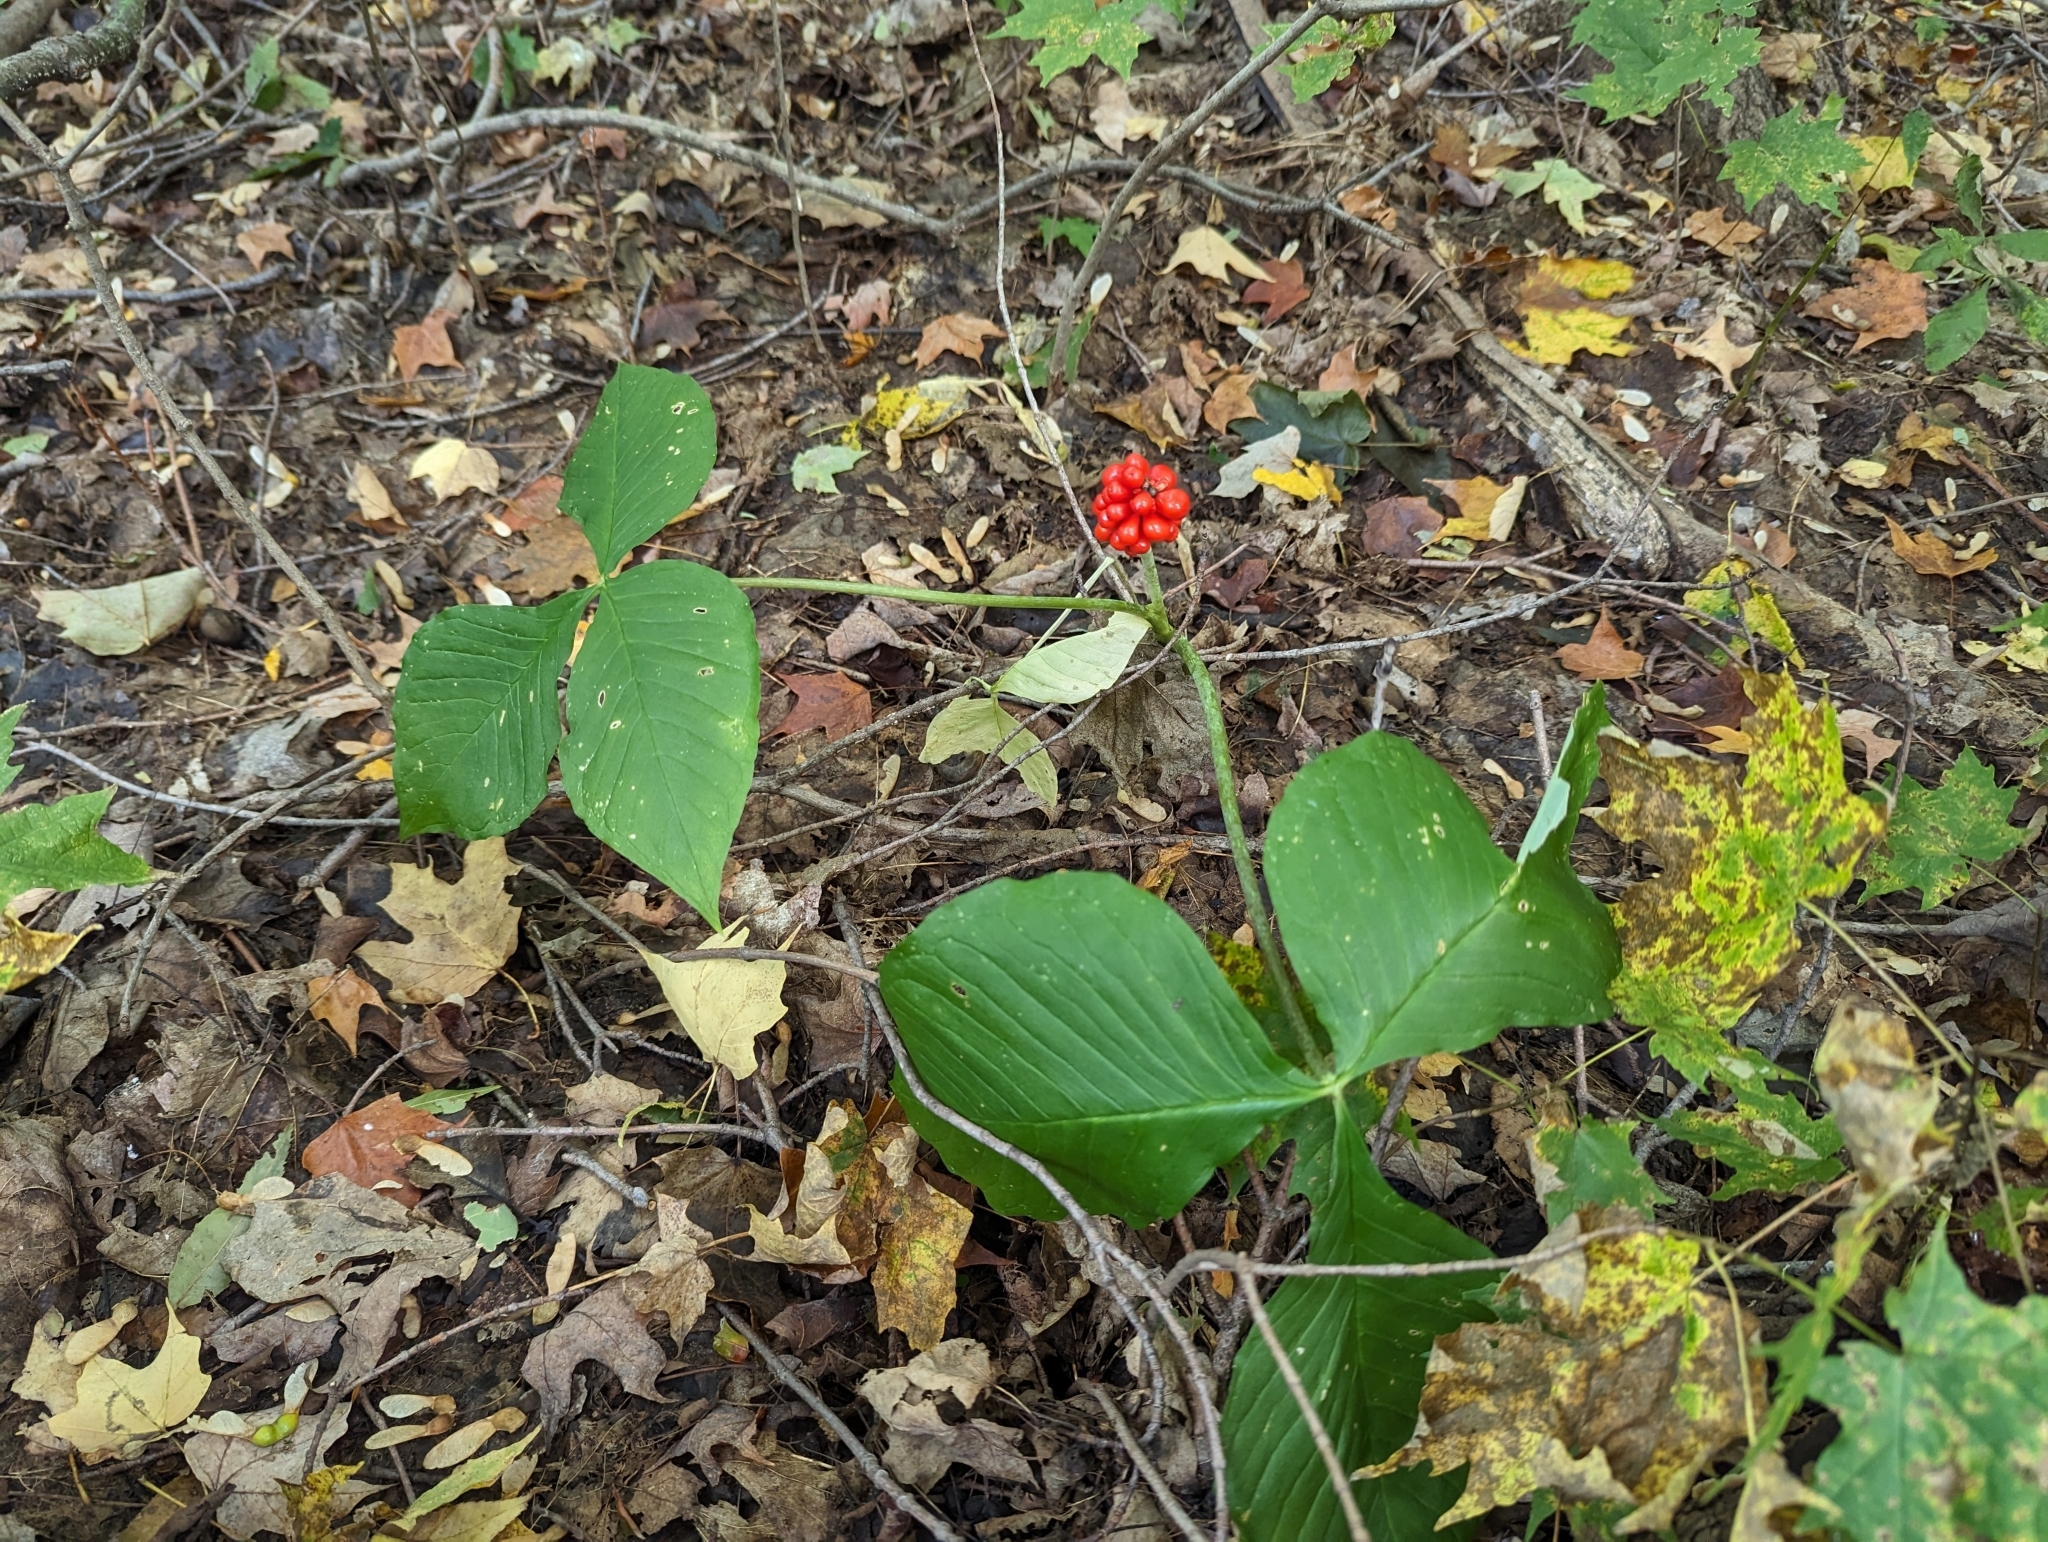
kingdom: Plantae
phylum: Tracheophyta
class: Liliopsida
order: Alismatales
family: Araceae
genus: Arisaema
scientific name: Arisaema triphyllum
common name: Jack-in-the-pulpit
